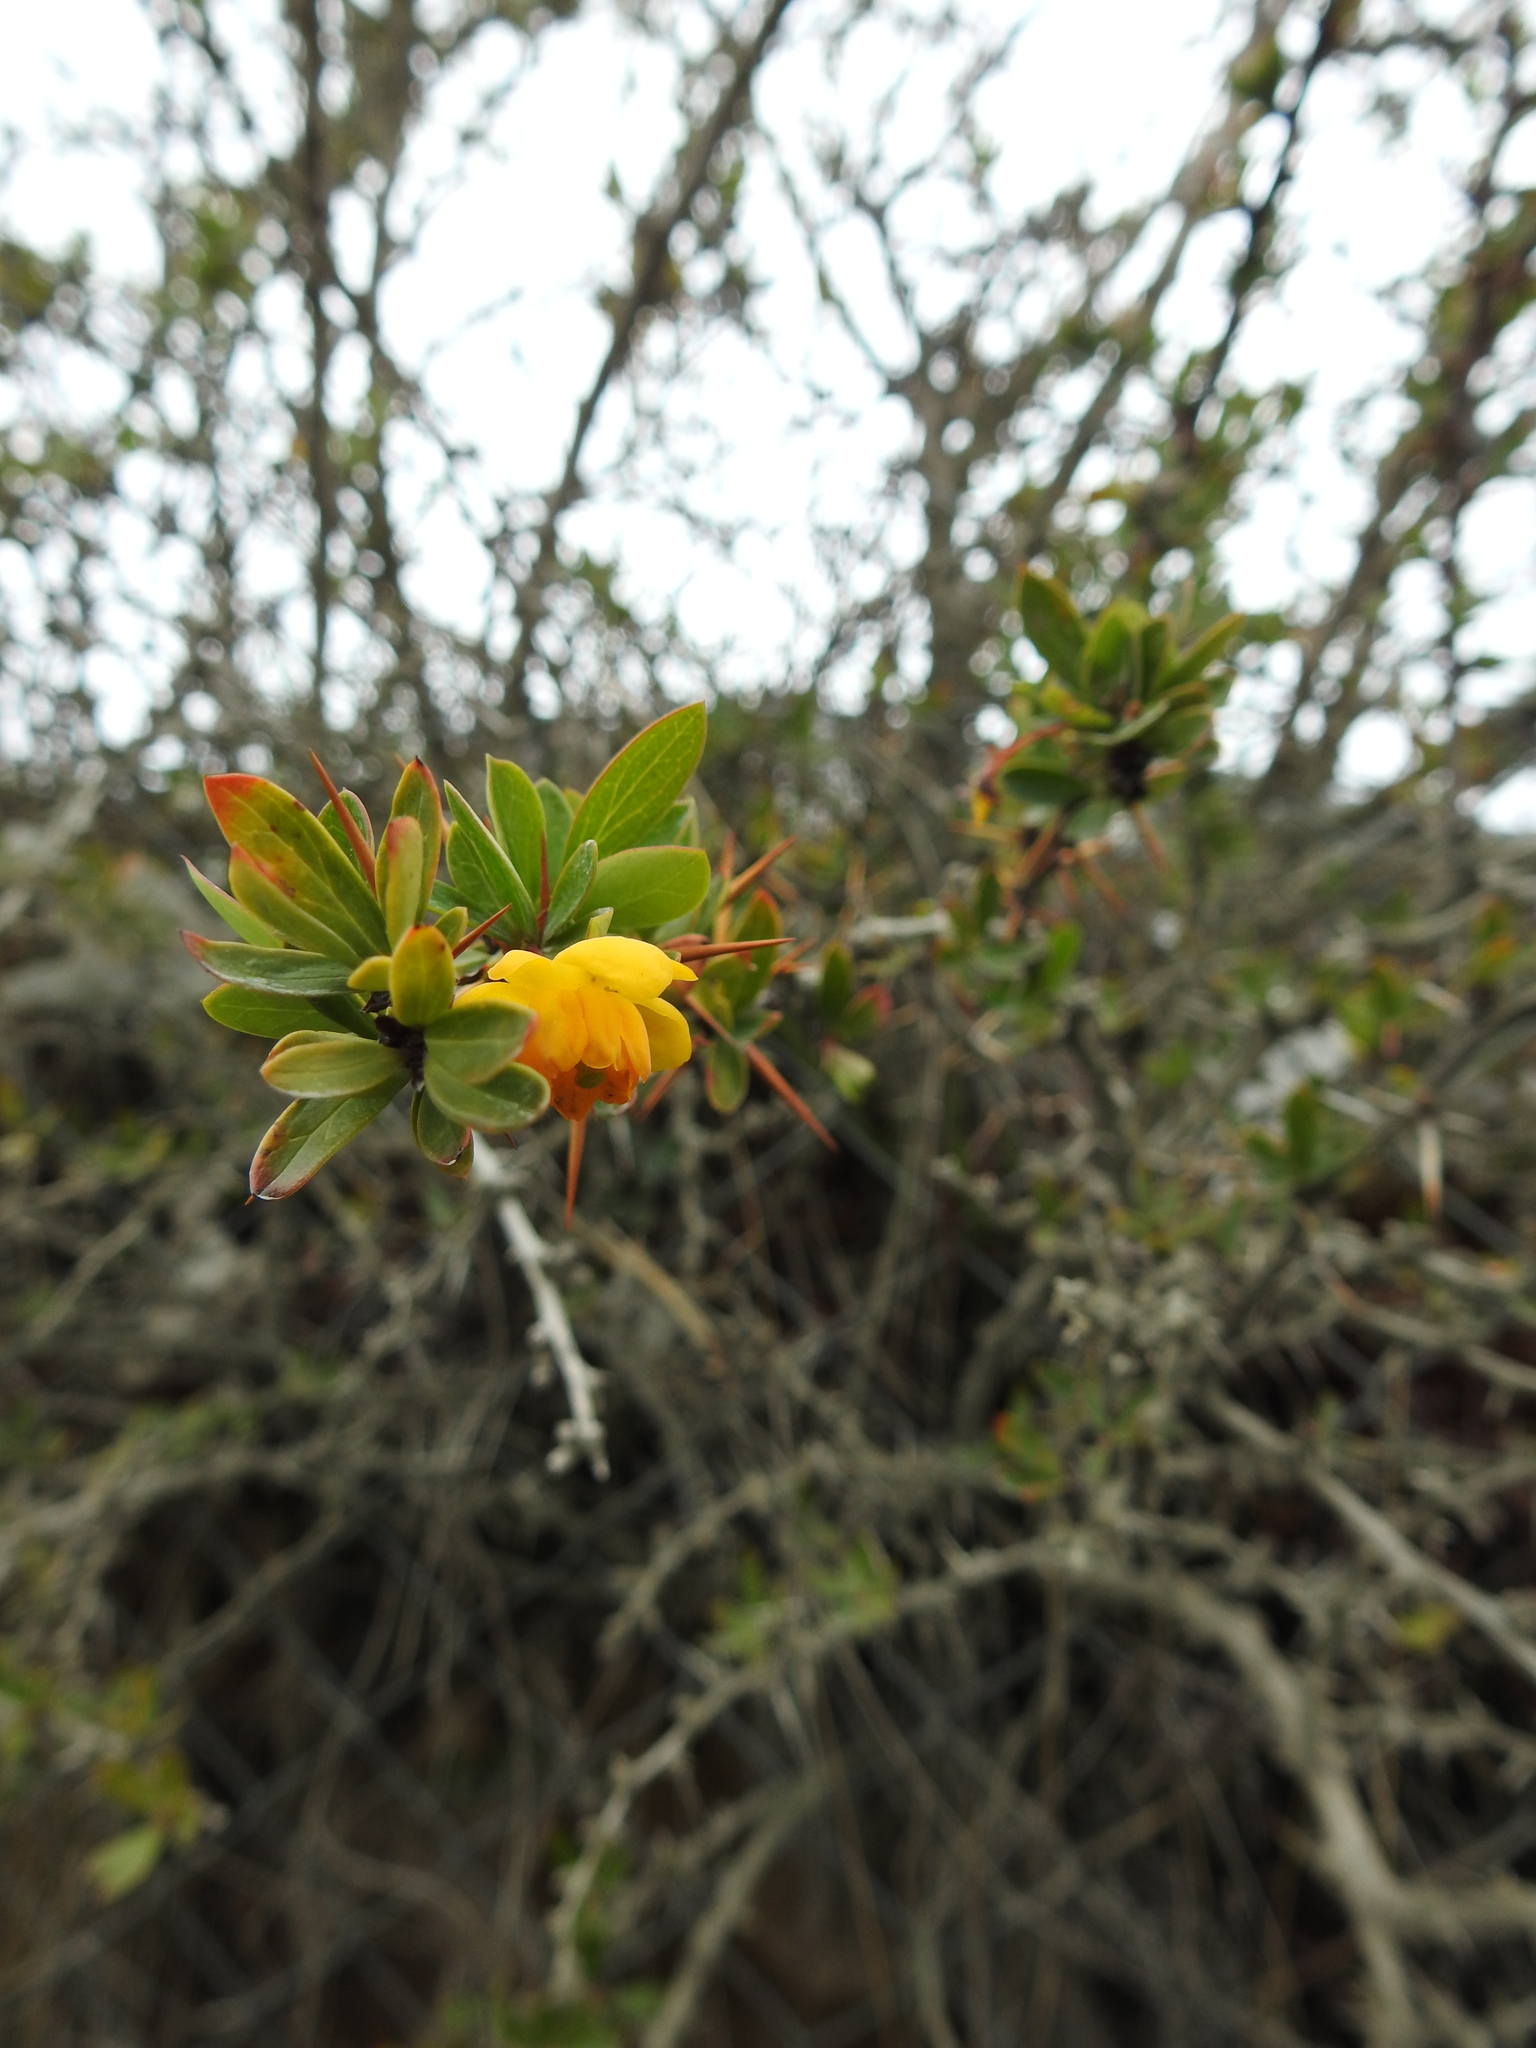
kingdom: Plantae
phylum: Tracheophyta
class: Magnoliopsida
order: Ranunculales
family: Berberidaceae
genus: Berberis
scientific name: Berberis microphylla
